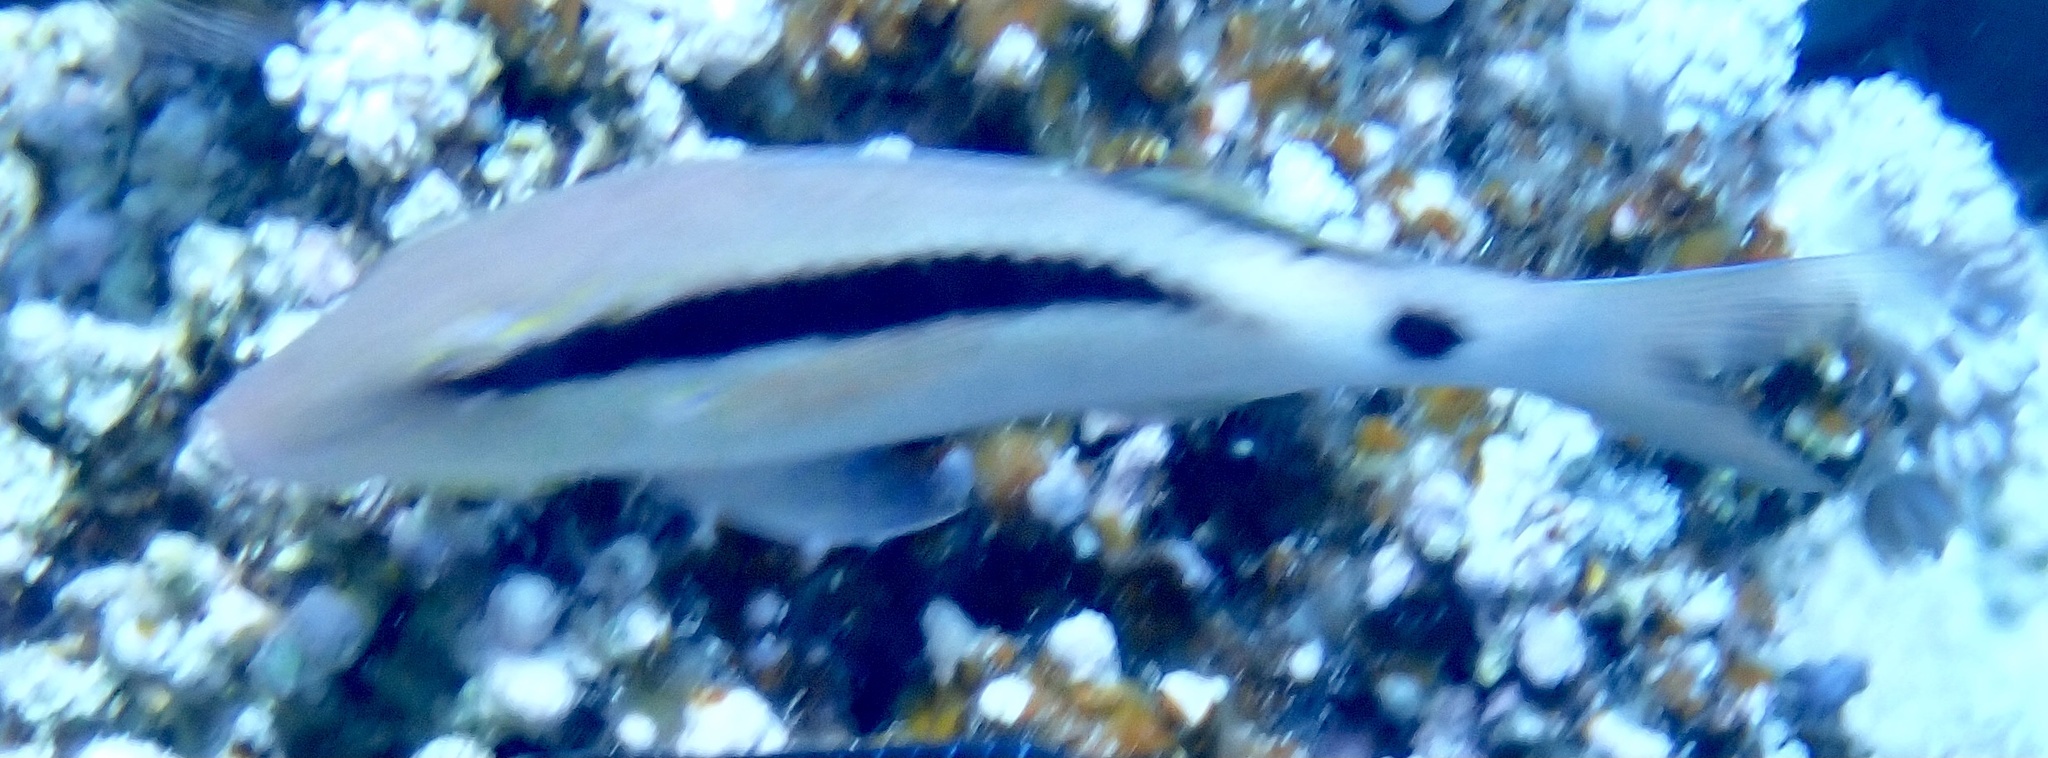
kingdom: Animalia
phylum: Chordata
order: Perciformes
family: Mullidae
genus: Parupeneus
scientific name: Parupeneus macronemus
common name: Long-barbel goatfish
